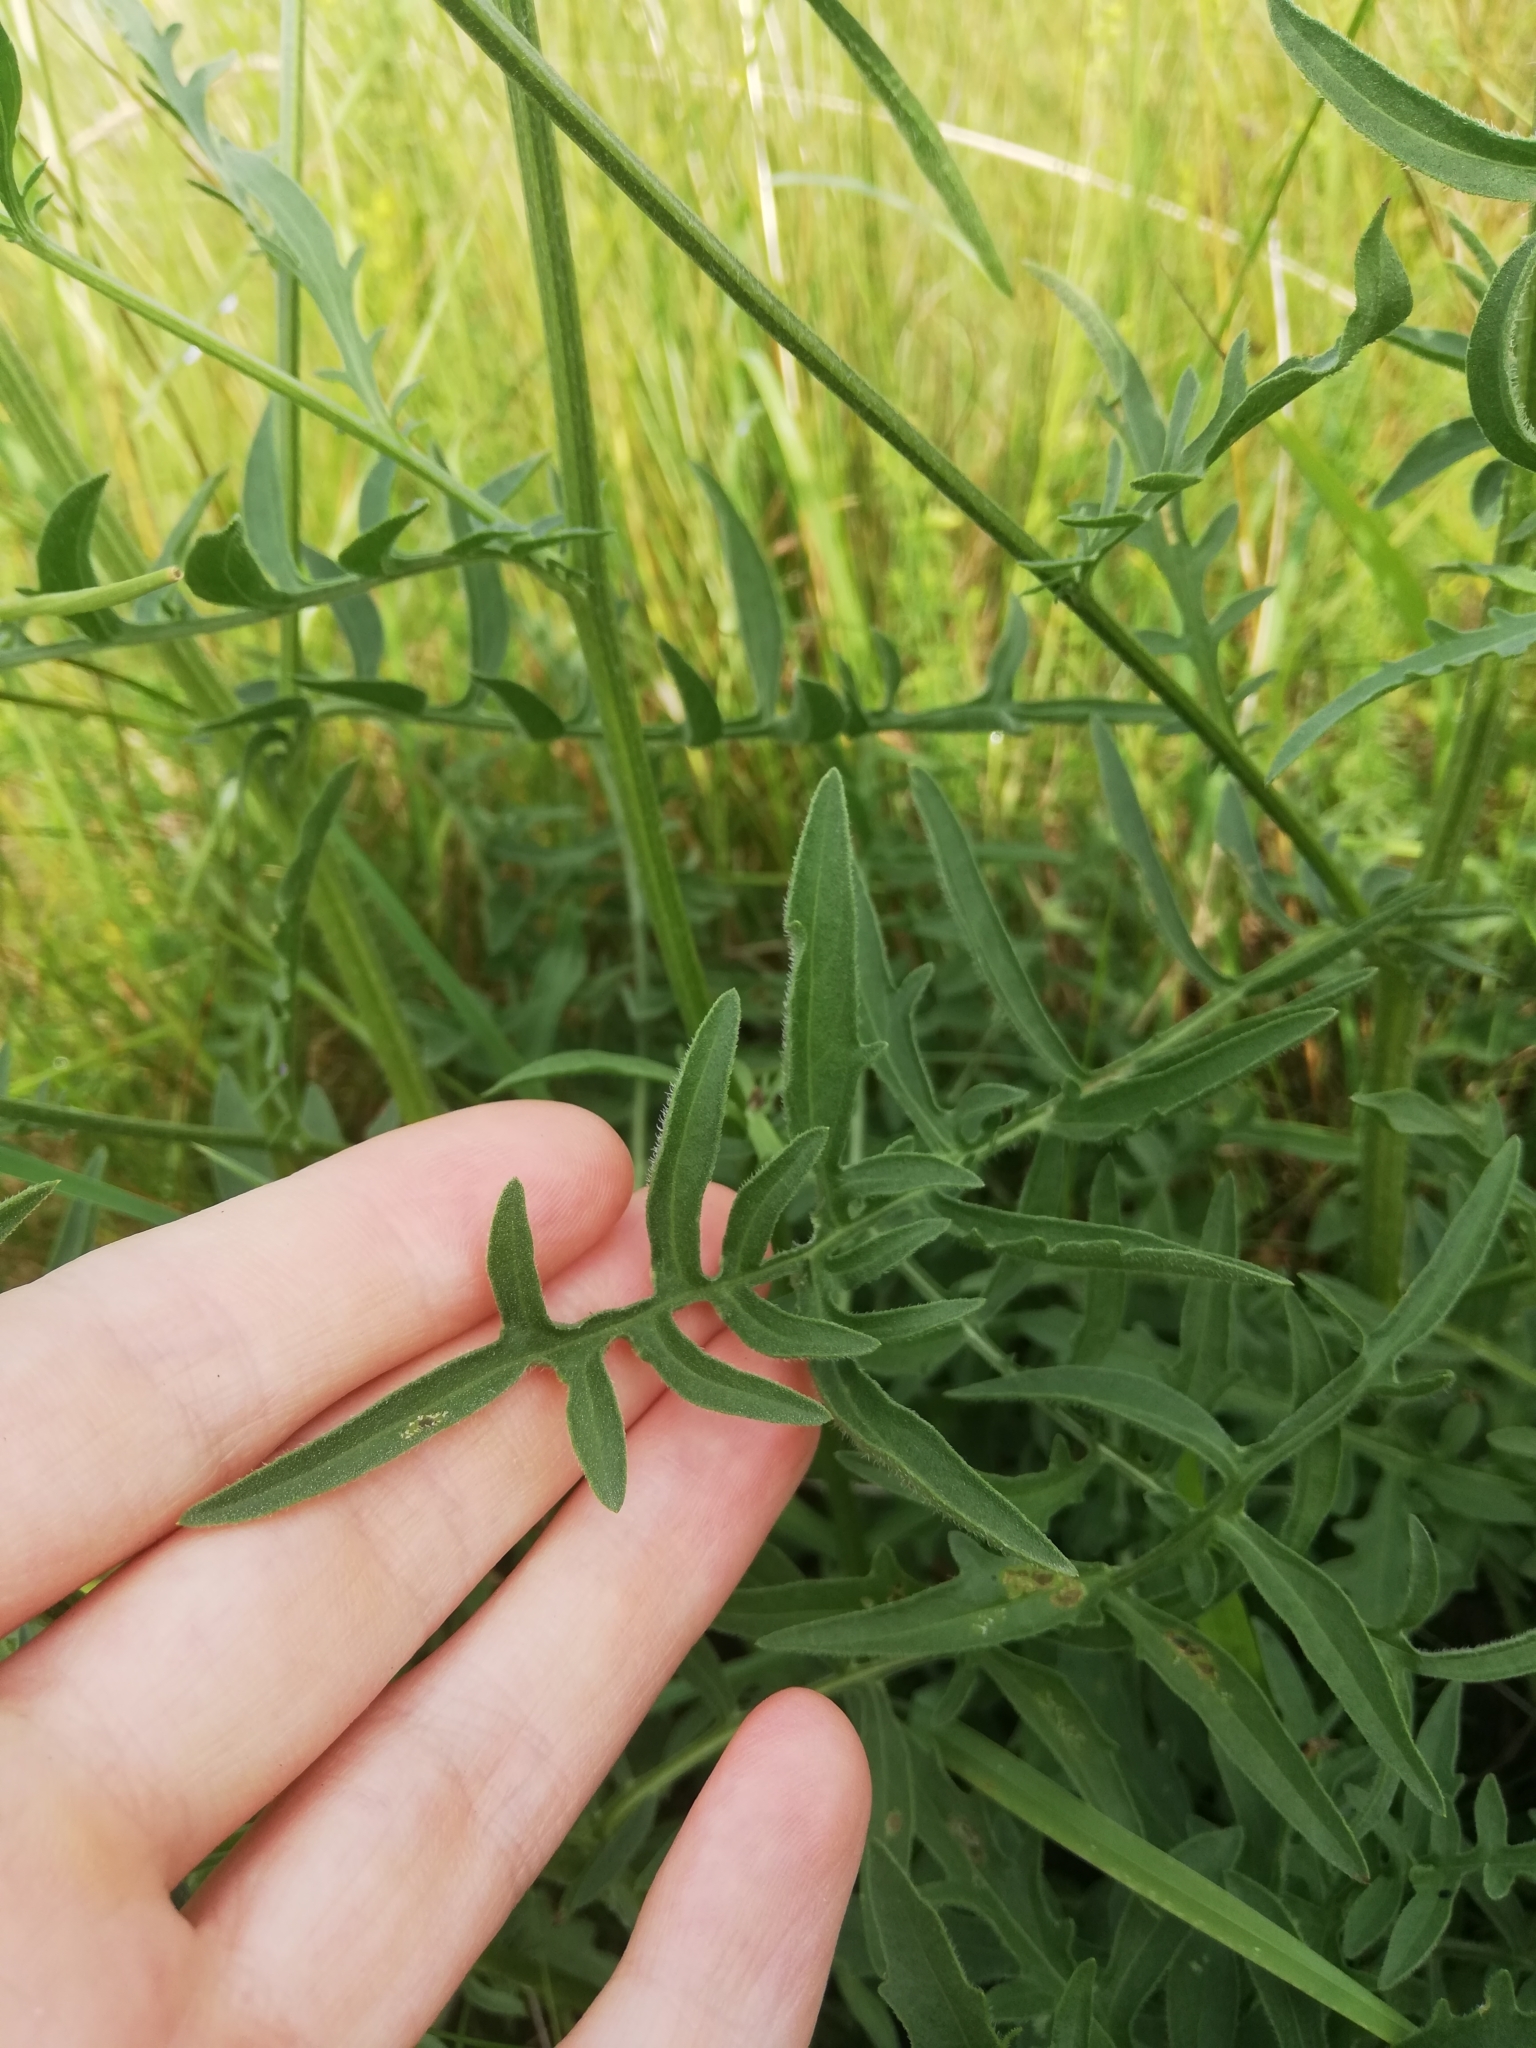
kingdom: Plantae
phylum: Tracheophyta
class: Magnoliopsida
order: Asterales
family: Asteraceae
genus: Centaurea
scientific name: Centaurea scabiosa
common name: Greater knapweed
